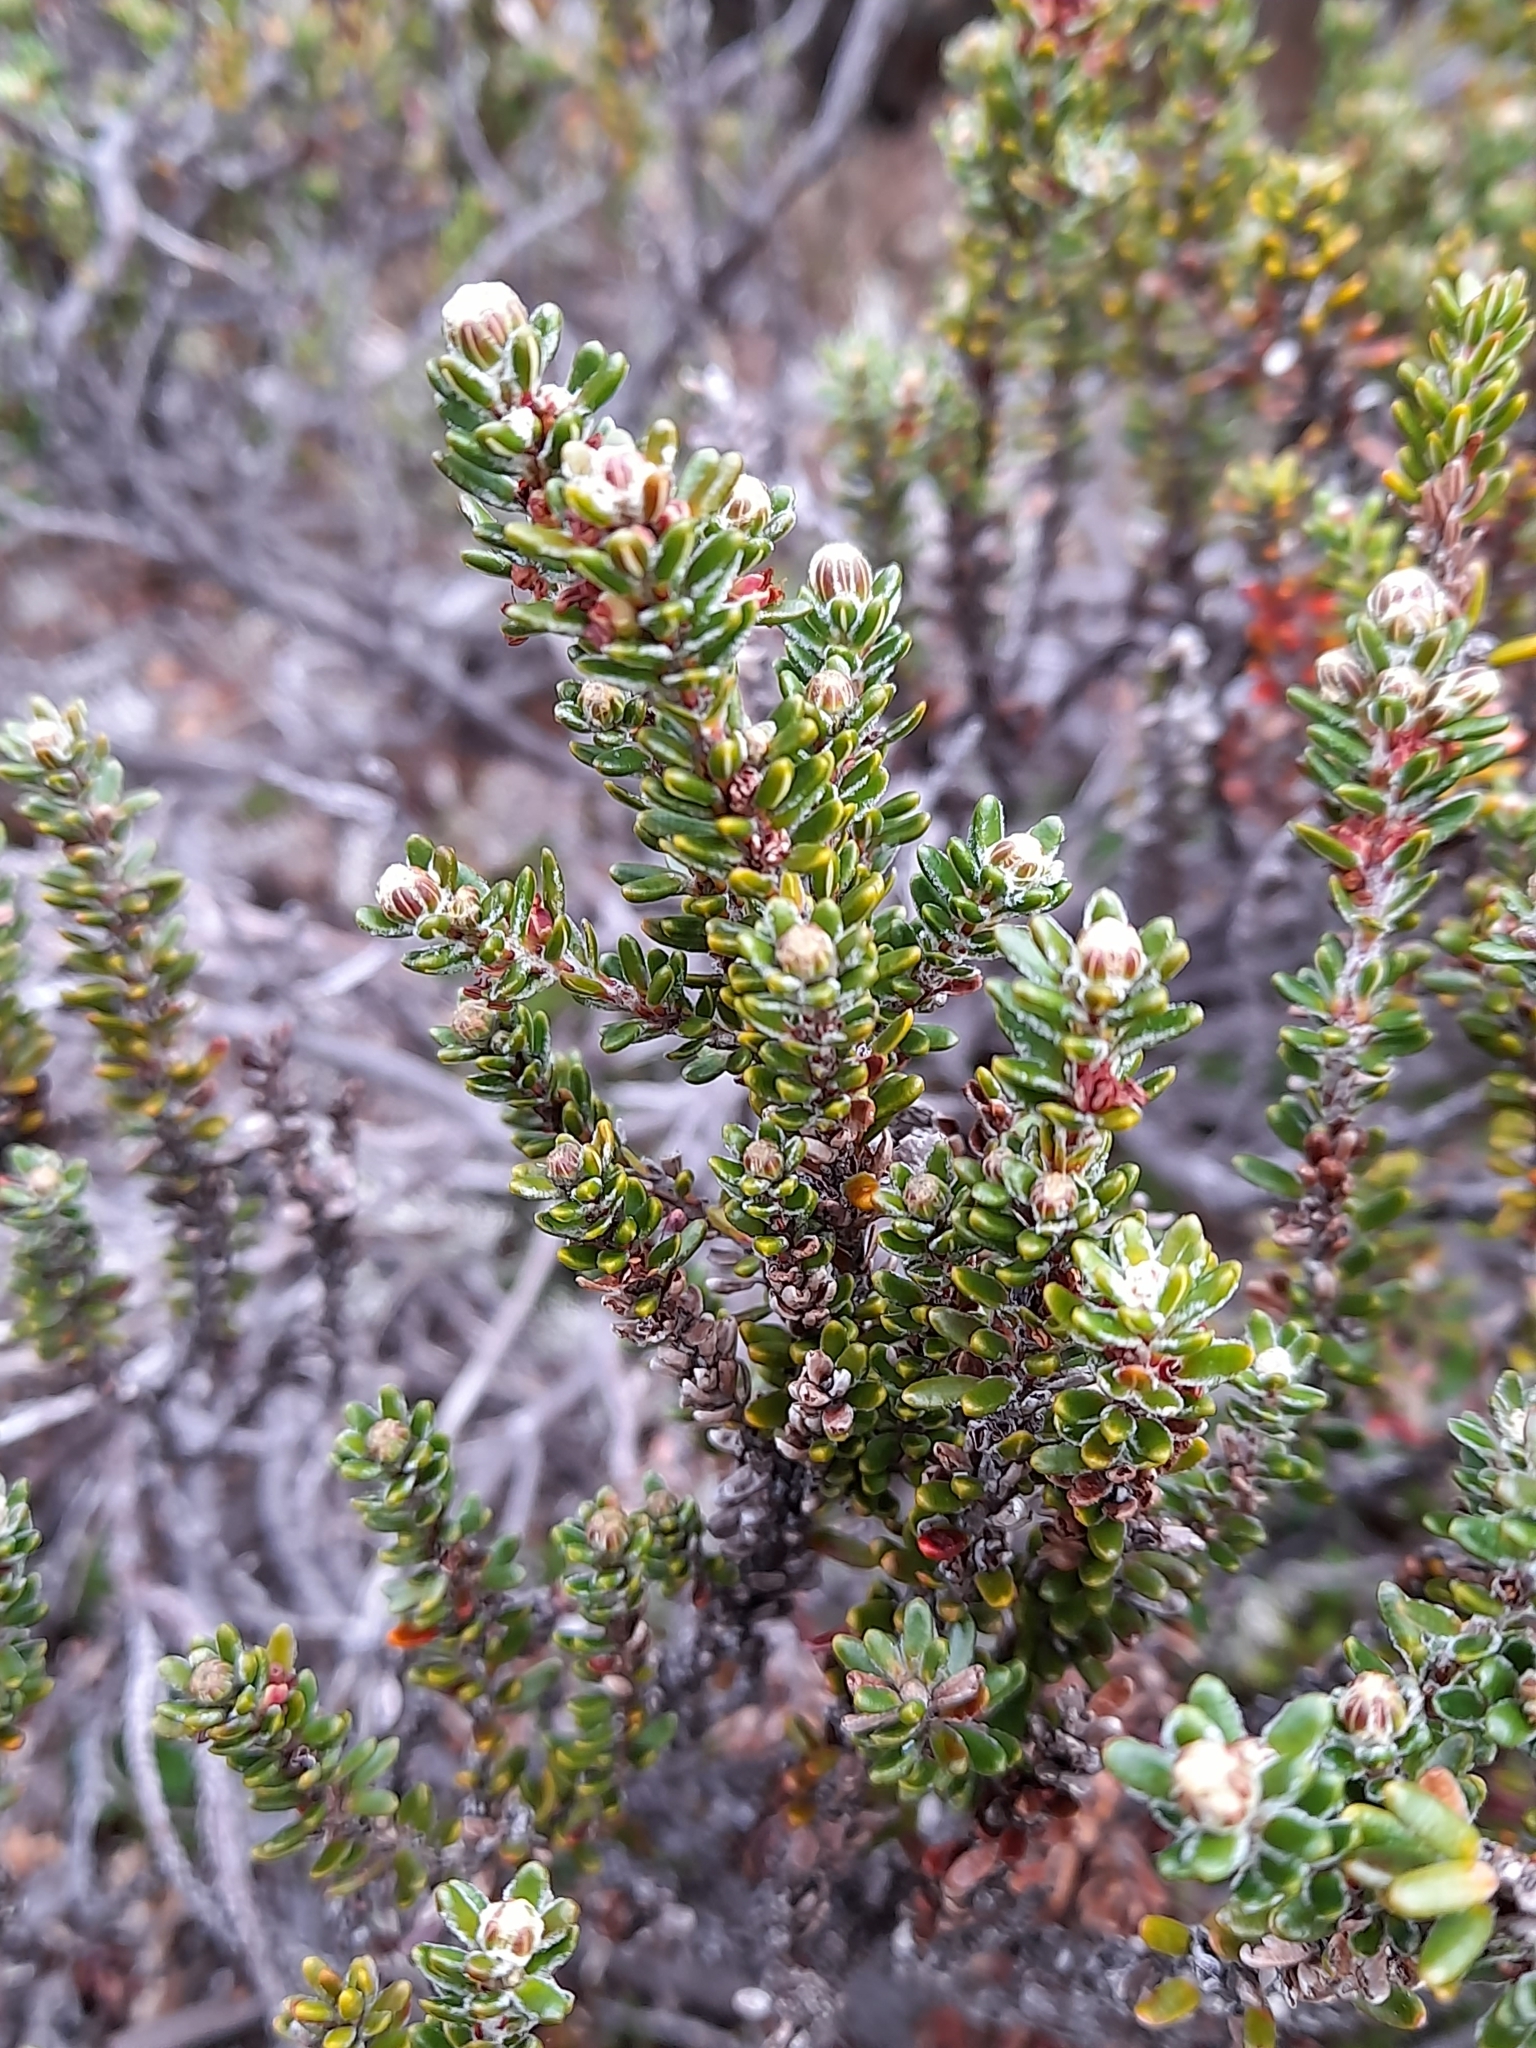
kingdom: Plantae
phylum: Tracheophyta
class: Magnoliopsida
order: Ericales
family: Ericaceae
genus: Empetrum
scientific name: Empetrum rubrum
